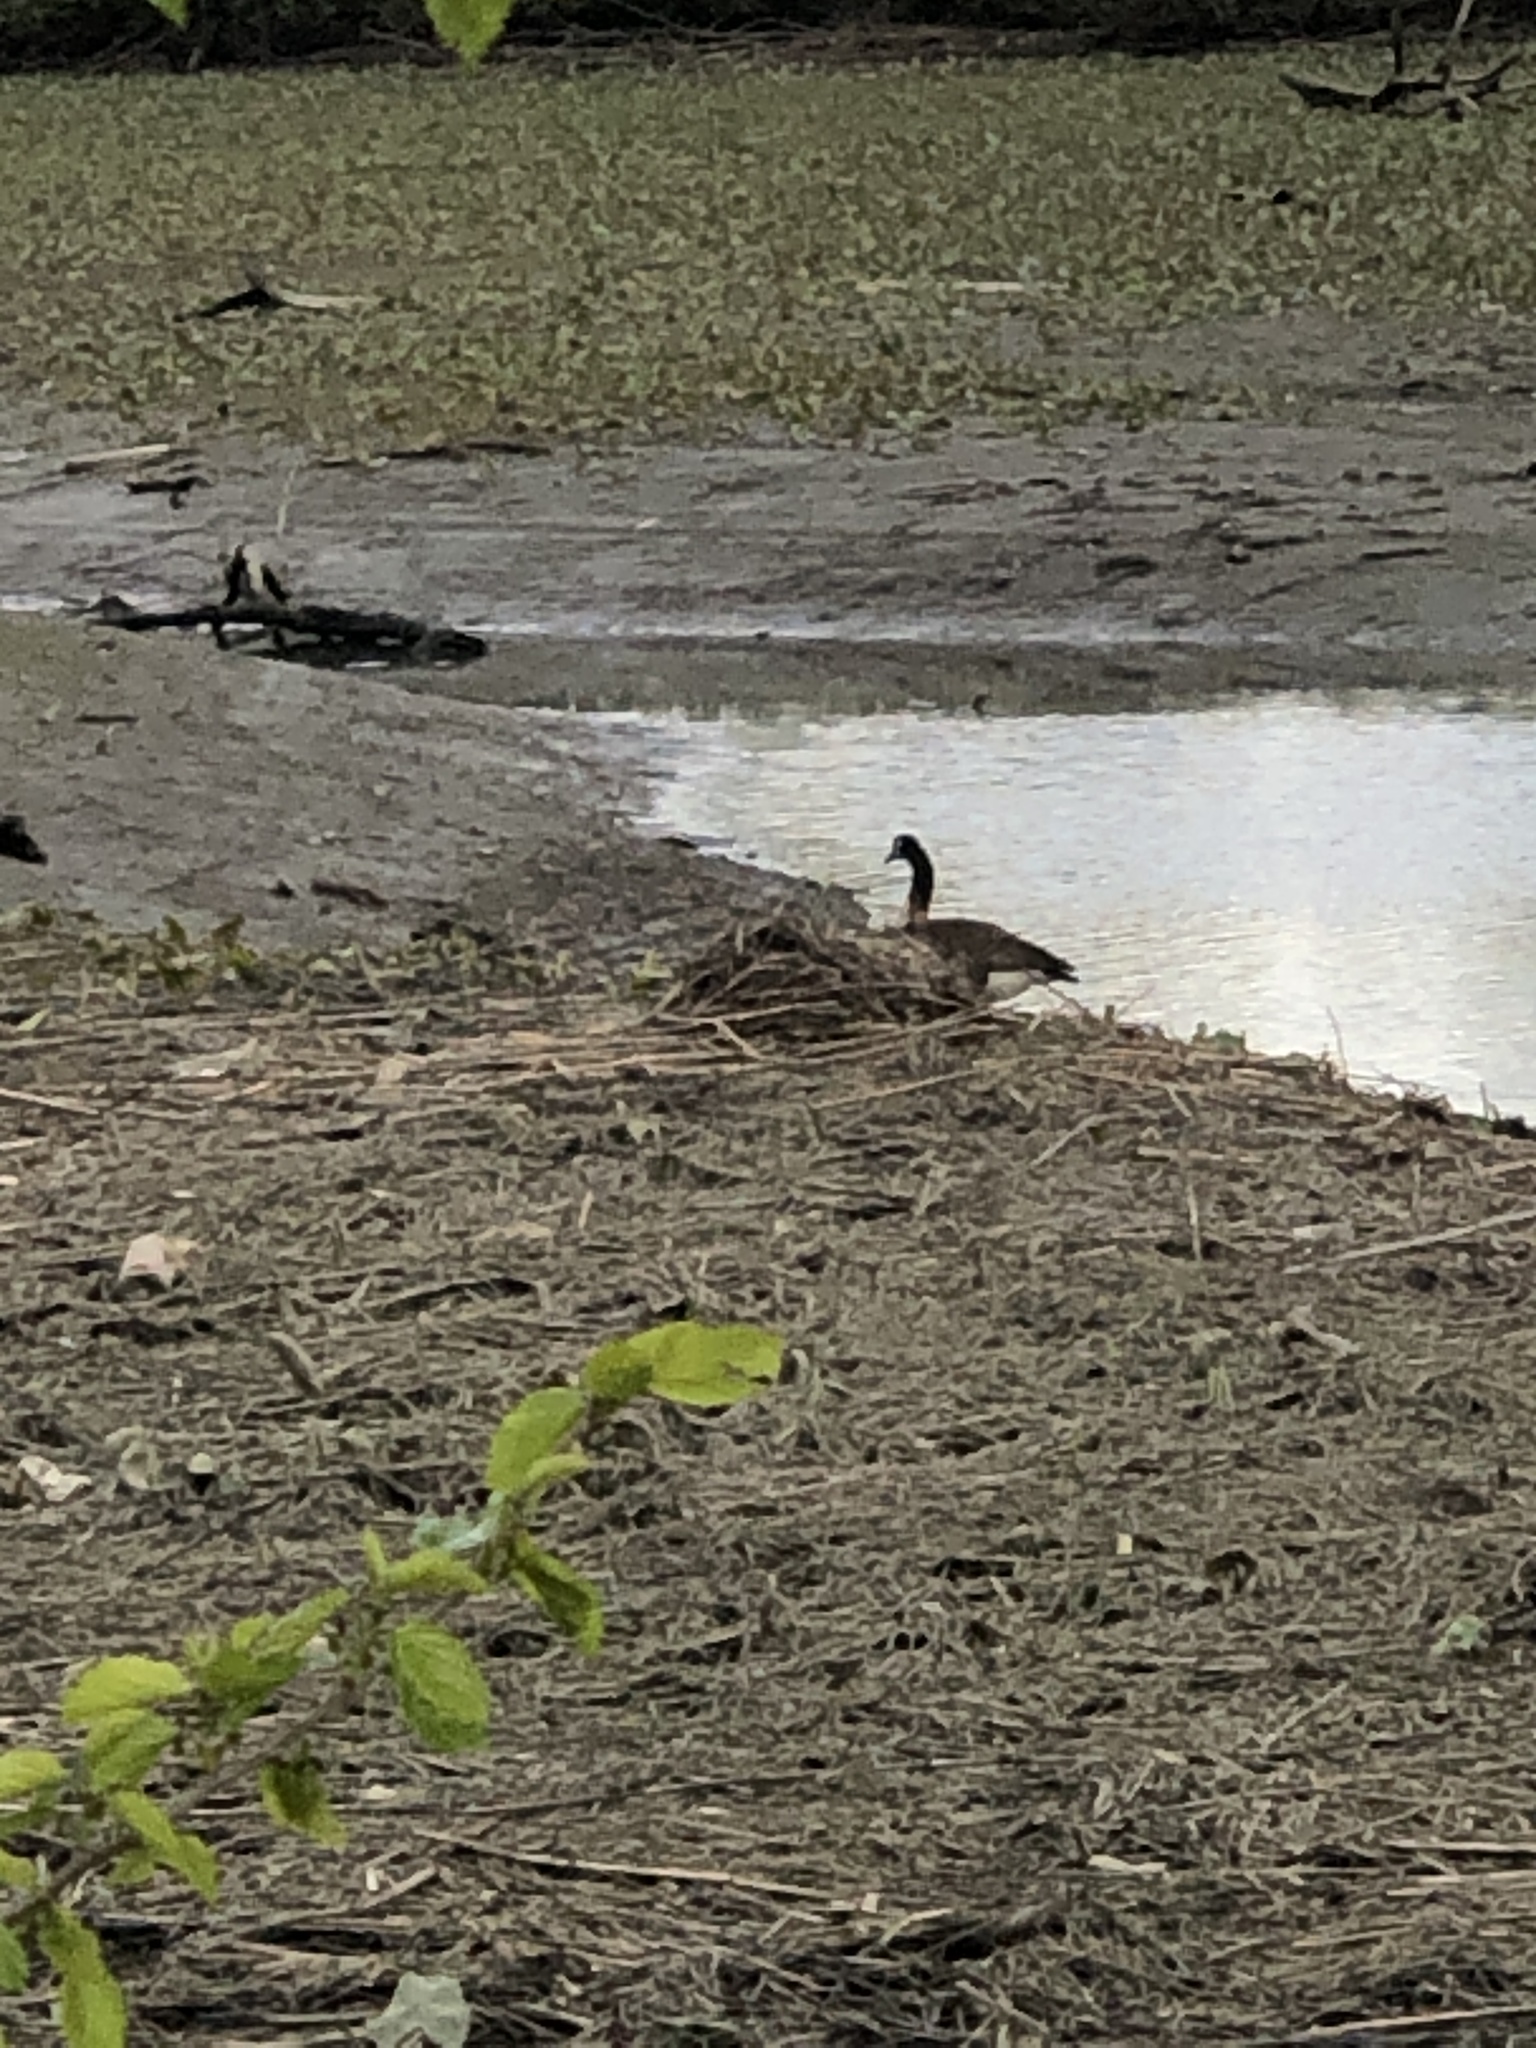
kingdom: Animalia
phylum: Chordata
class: Aves
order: Anseriformes
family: Anatidae
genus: Branta
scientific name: Branta canadensis
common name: Canada goose
